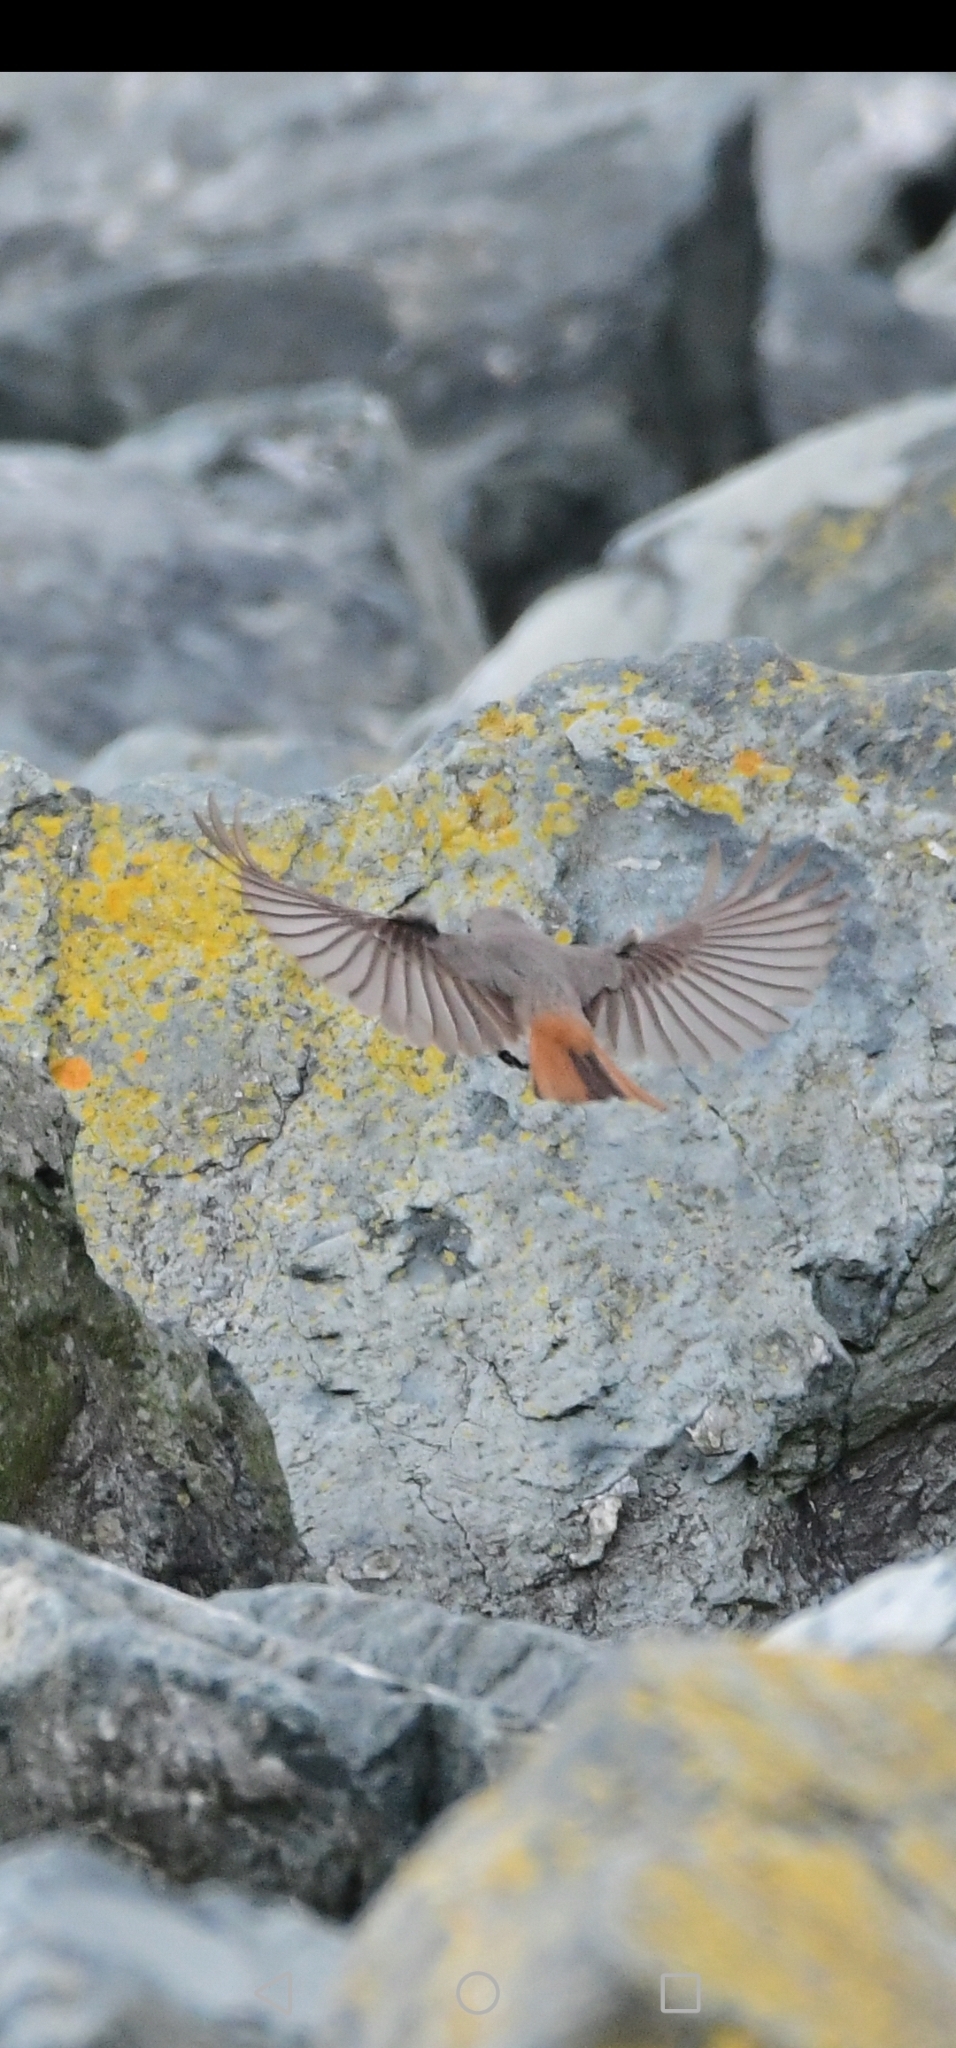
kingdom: Animalia
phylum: Chordata
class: Aves
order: Passeriformes
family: Muscicapidae
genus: Phoenicurus
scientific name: Phoenicurus ochruros
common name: Black redstart
